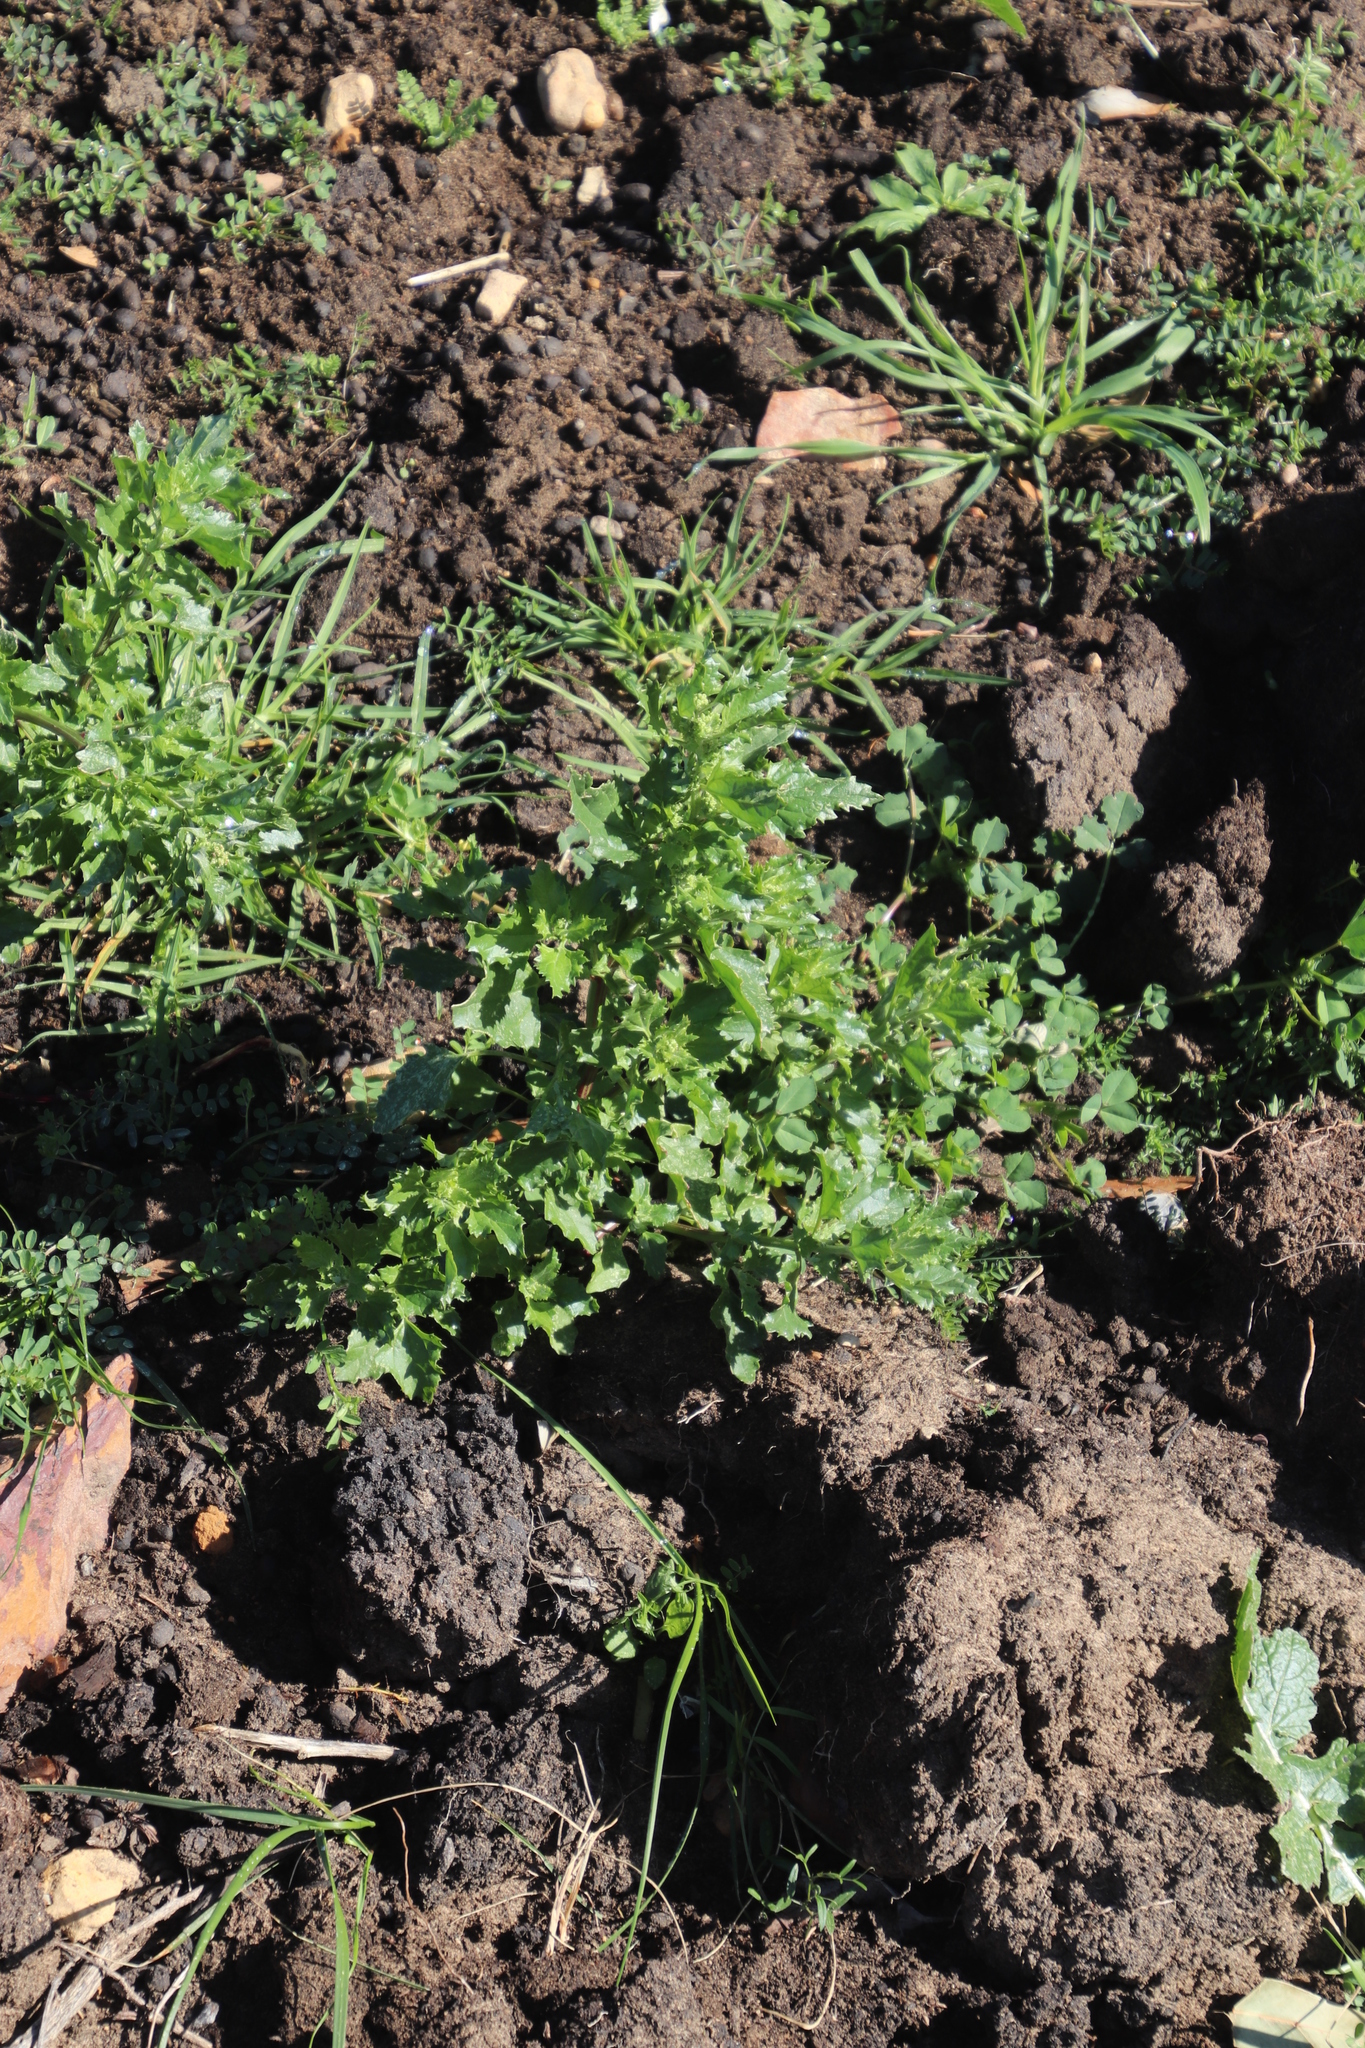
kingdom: Plantae
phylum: Tracheophyta
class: Magnoliopsida
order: Caryophyllales
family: Amaranthaceae
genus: Chenopodiastrum
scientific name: Chenopodiastrum murale
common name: Sowbane
